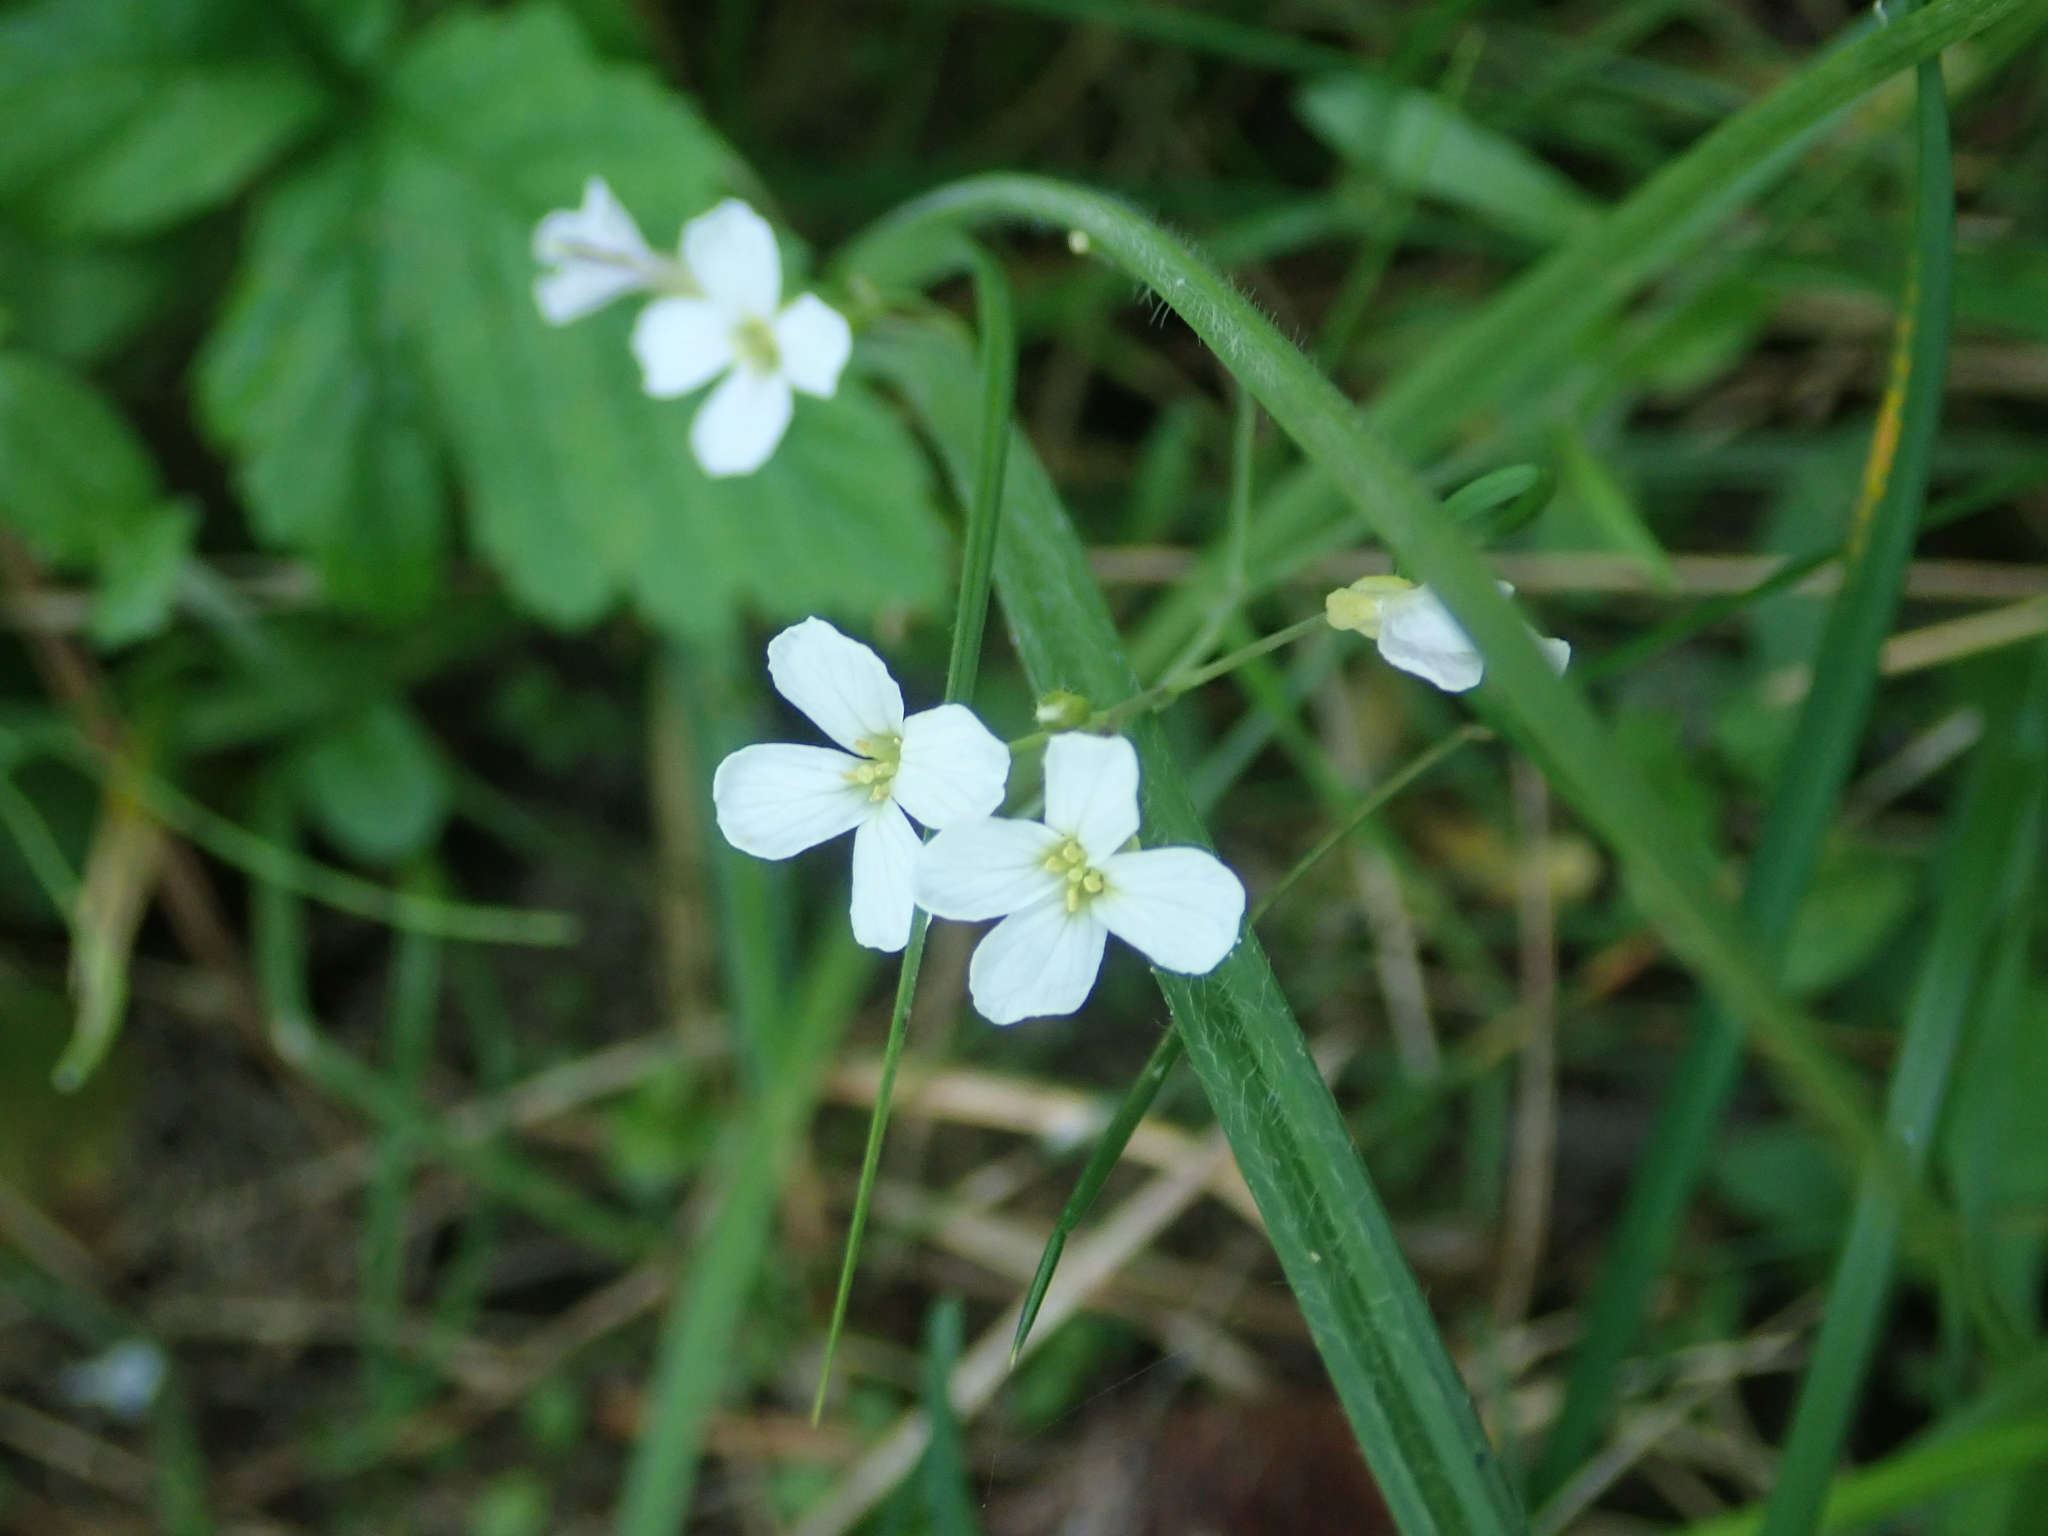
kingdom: Plantae
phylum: Tracheophyta
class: Magnoliopsida
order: Brassicales
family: Brassicaceae
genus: Cardamine
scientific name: Cardamine pratensis
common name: Cuckoo flower
